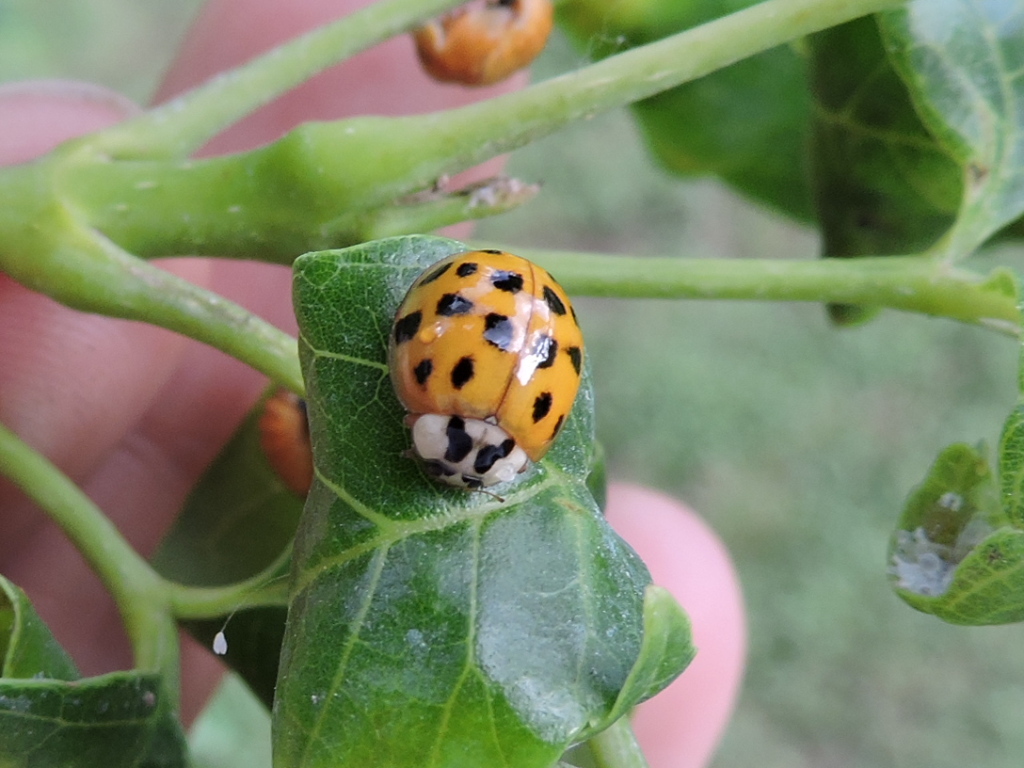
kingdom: Animalia
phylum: Arthropoda
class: Insecta
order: Coleoptera
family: Coccinellidae
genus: Harmonia
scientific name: Harmonia axyridis
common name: Harlequin ladybird
